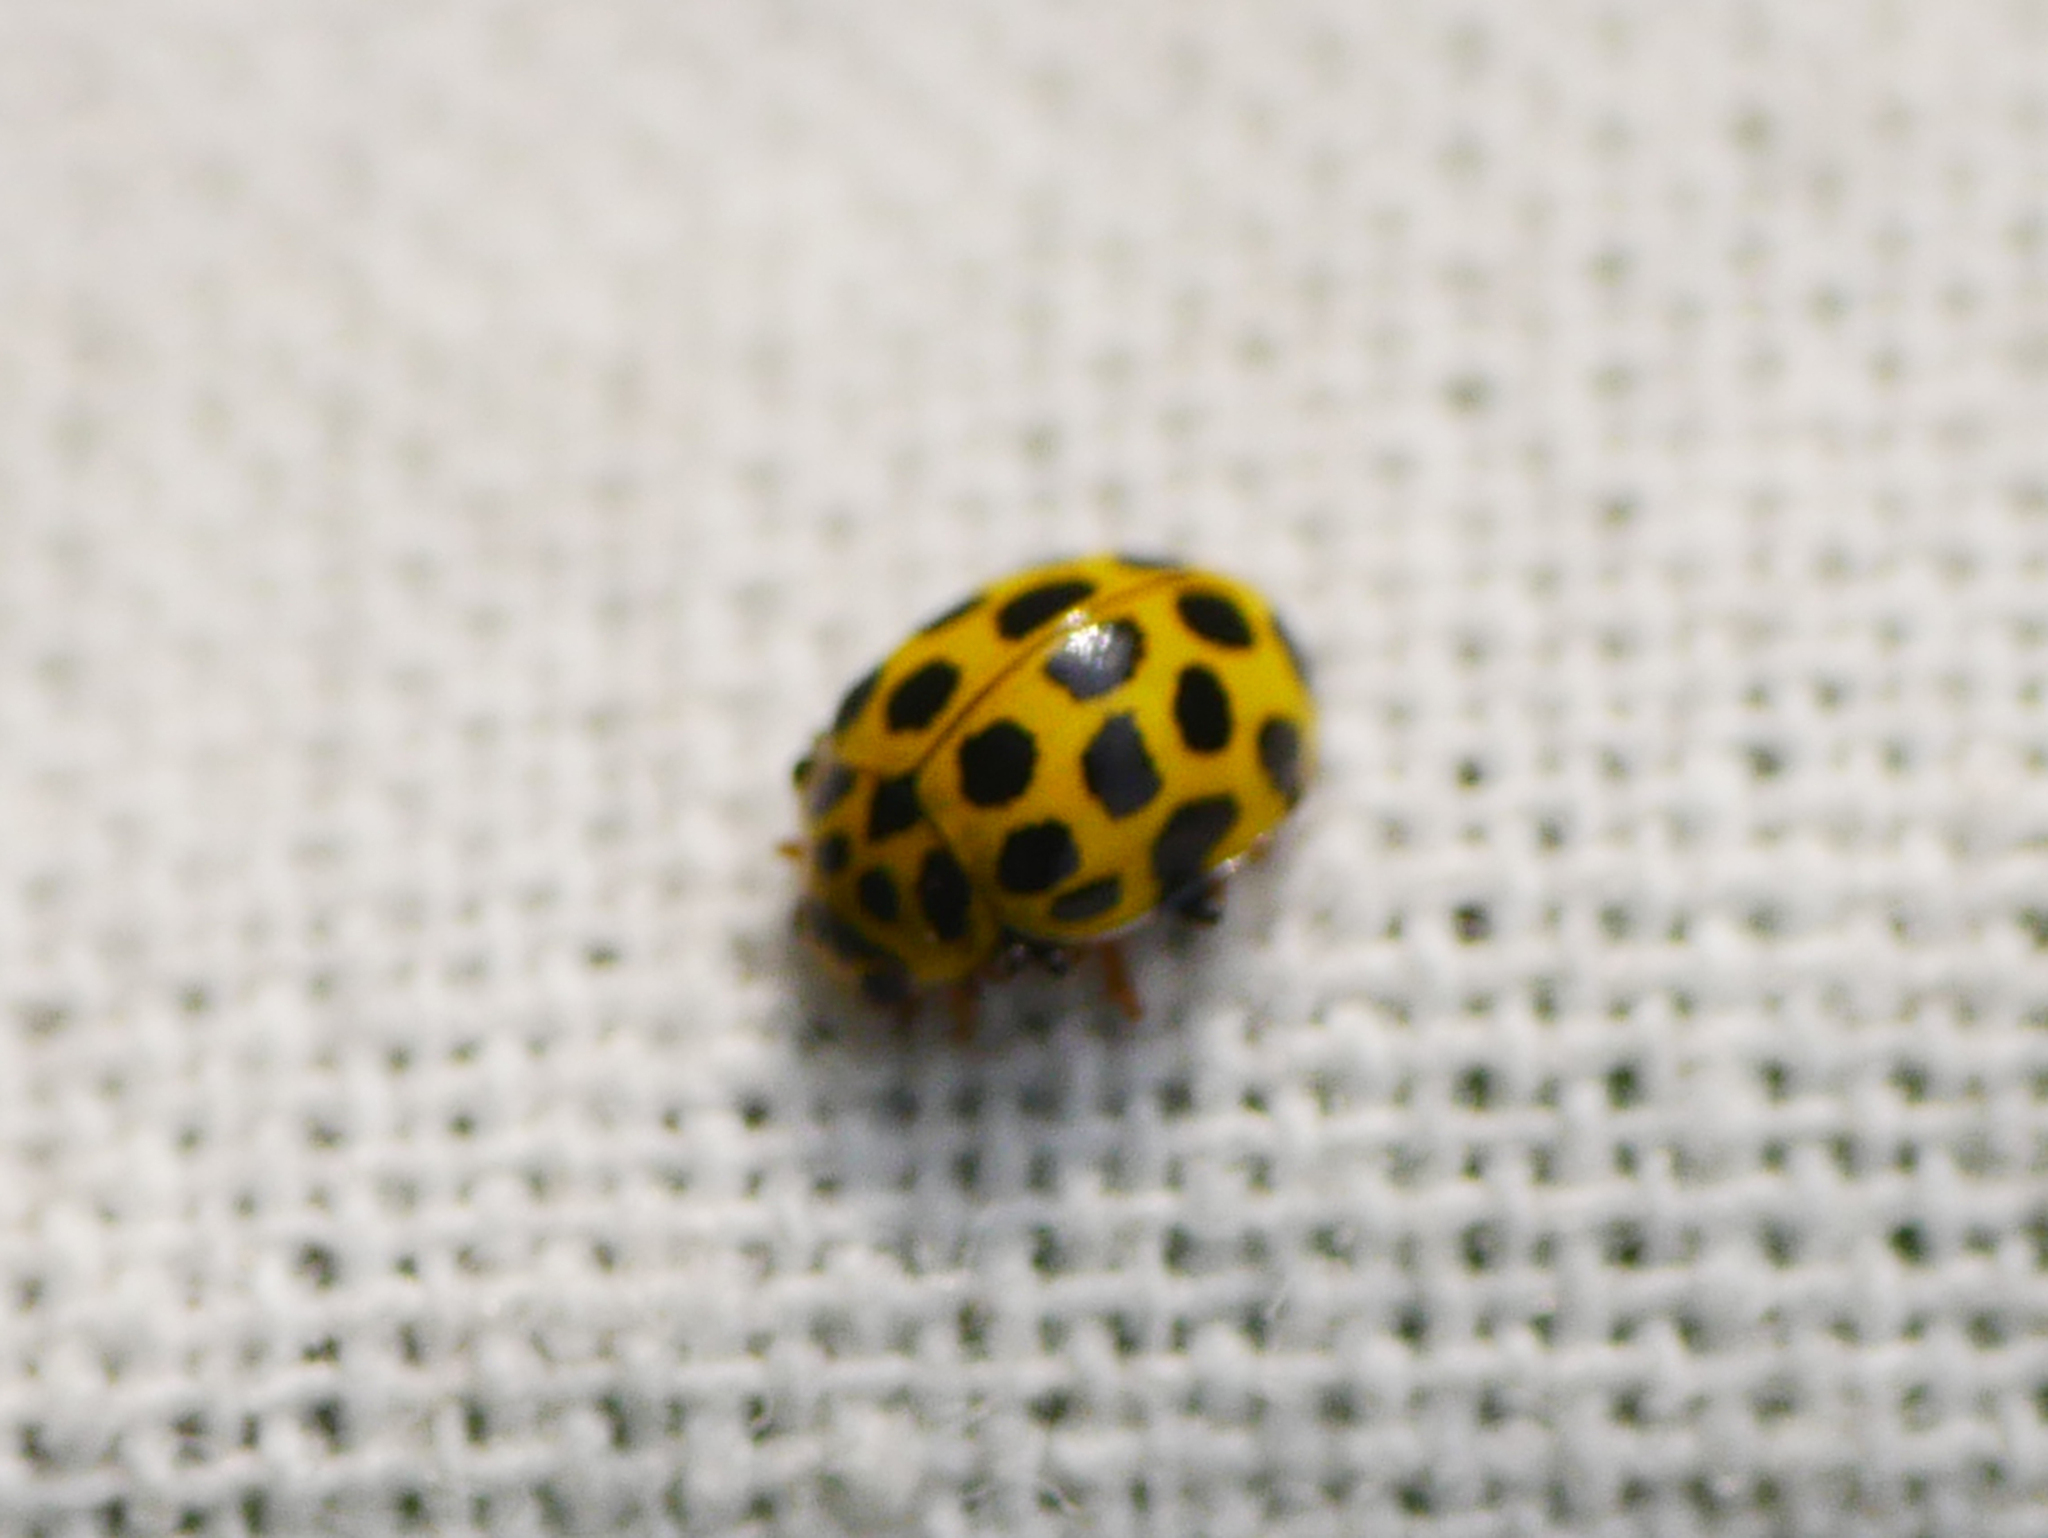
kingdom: Animalia
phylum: Arthropoda
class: Insecta
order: Coleoptera
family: Coccinellidae
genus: Psyllobora
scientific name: Psyllobora vigintiduopunctata
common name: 22-spot ladybird
